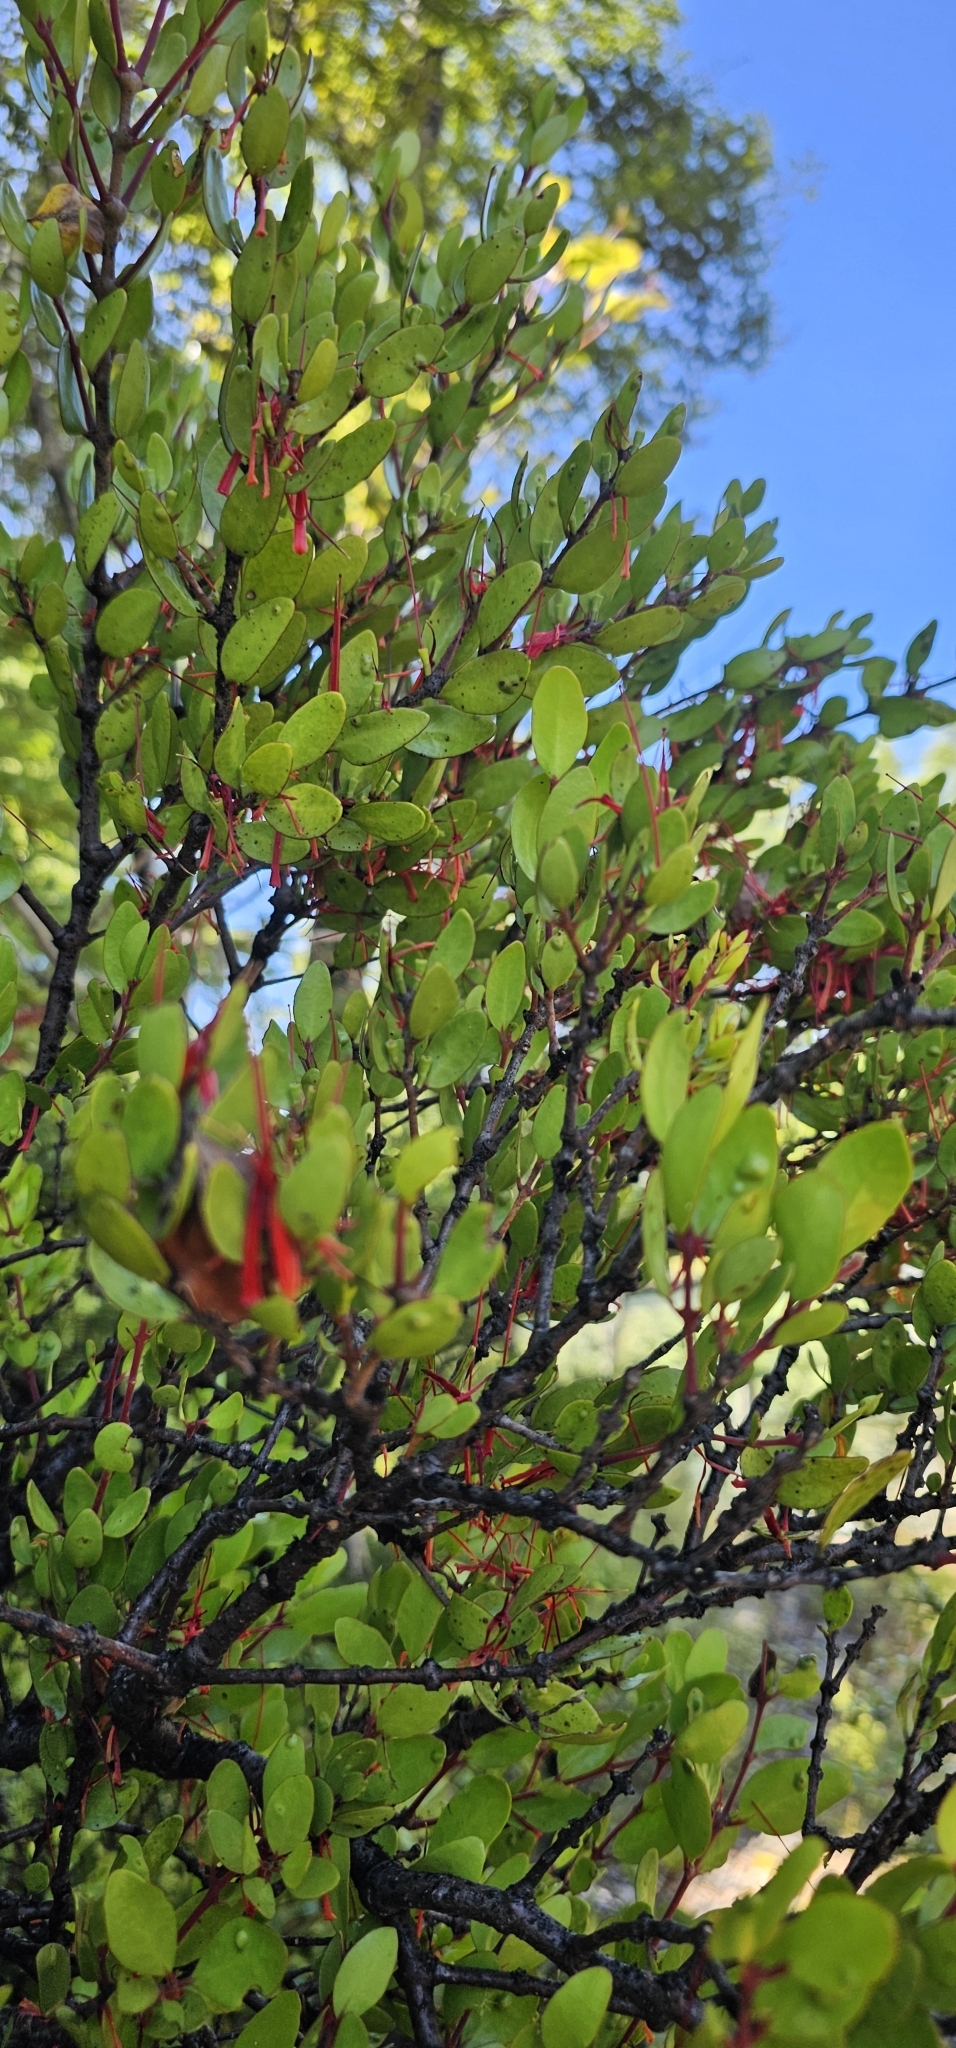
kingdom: Plantae
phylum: Tracheophyta
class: Magnoliopsida
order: Santalales
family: Loranthaceae
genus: Peraxilla
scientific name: Peraxilla tetrapetala
